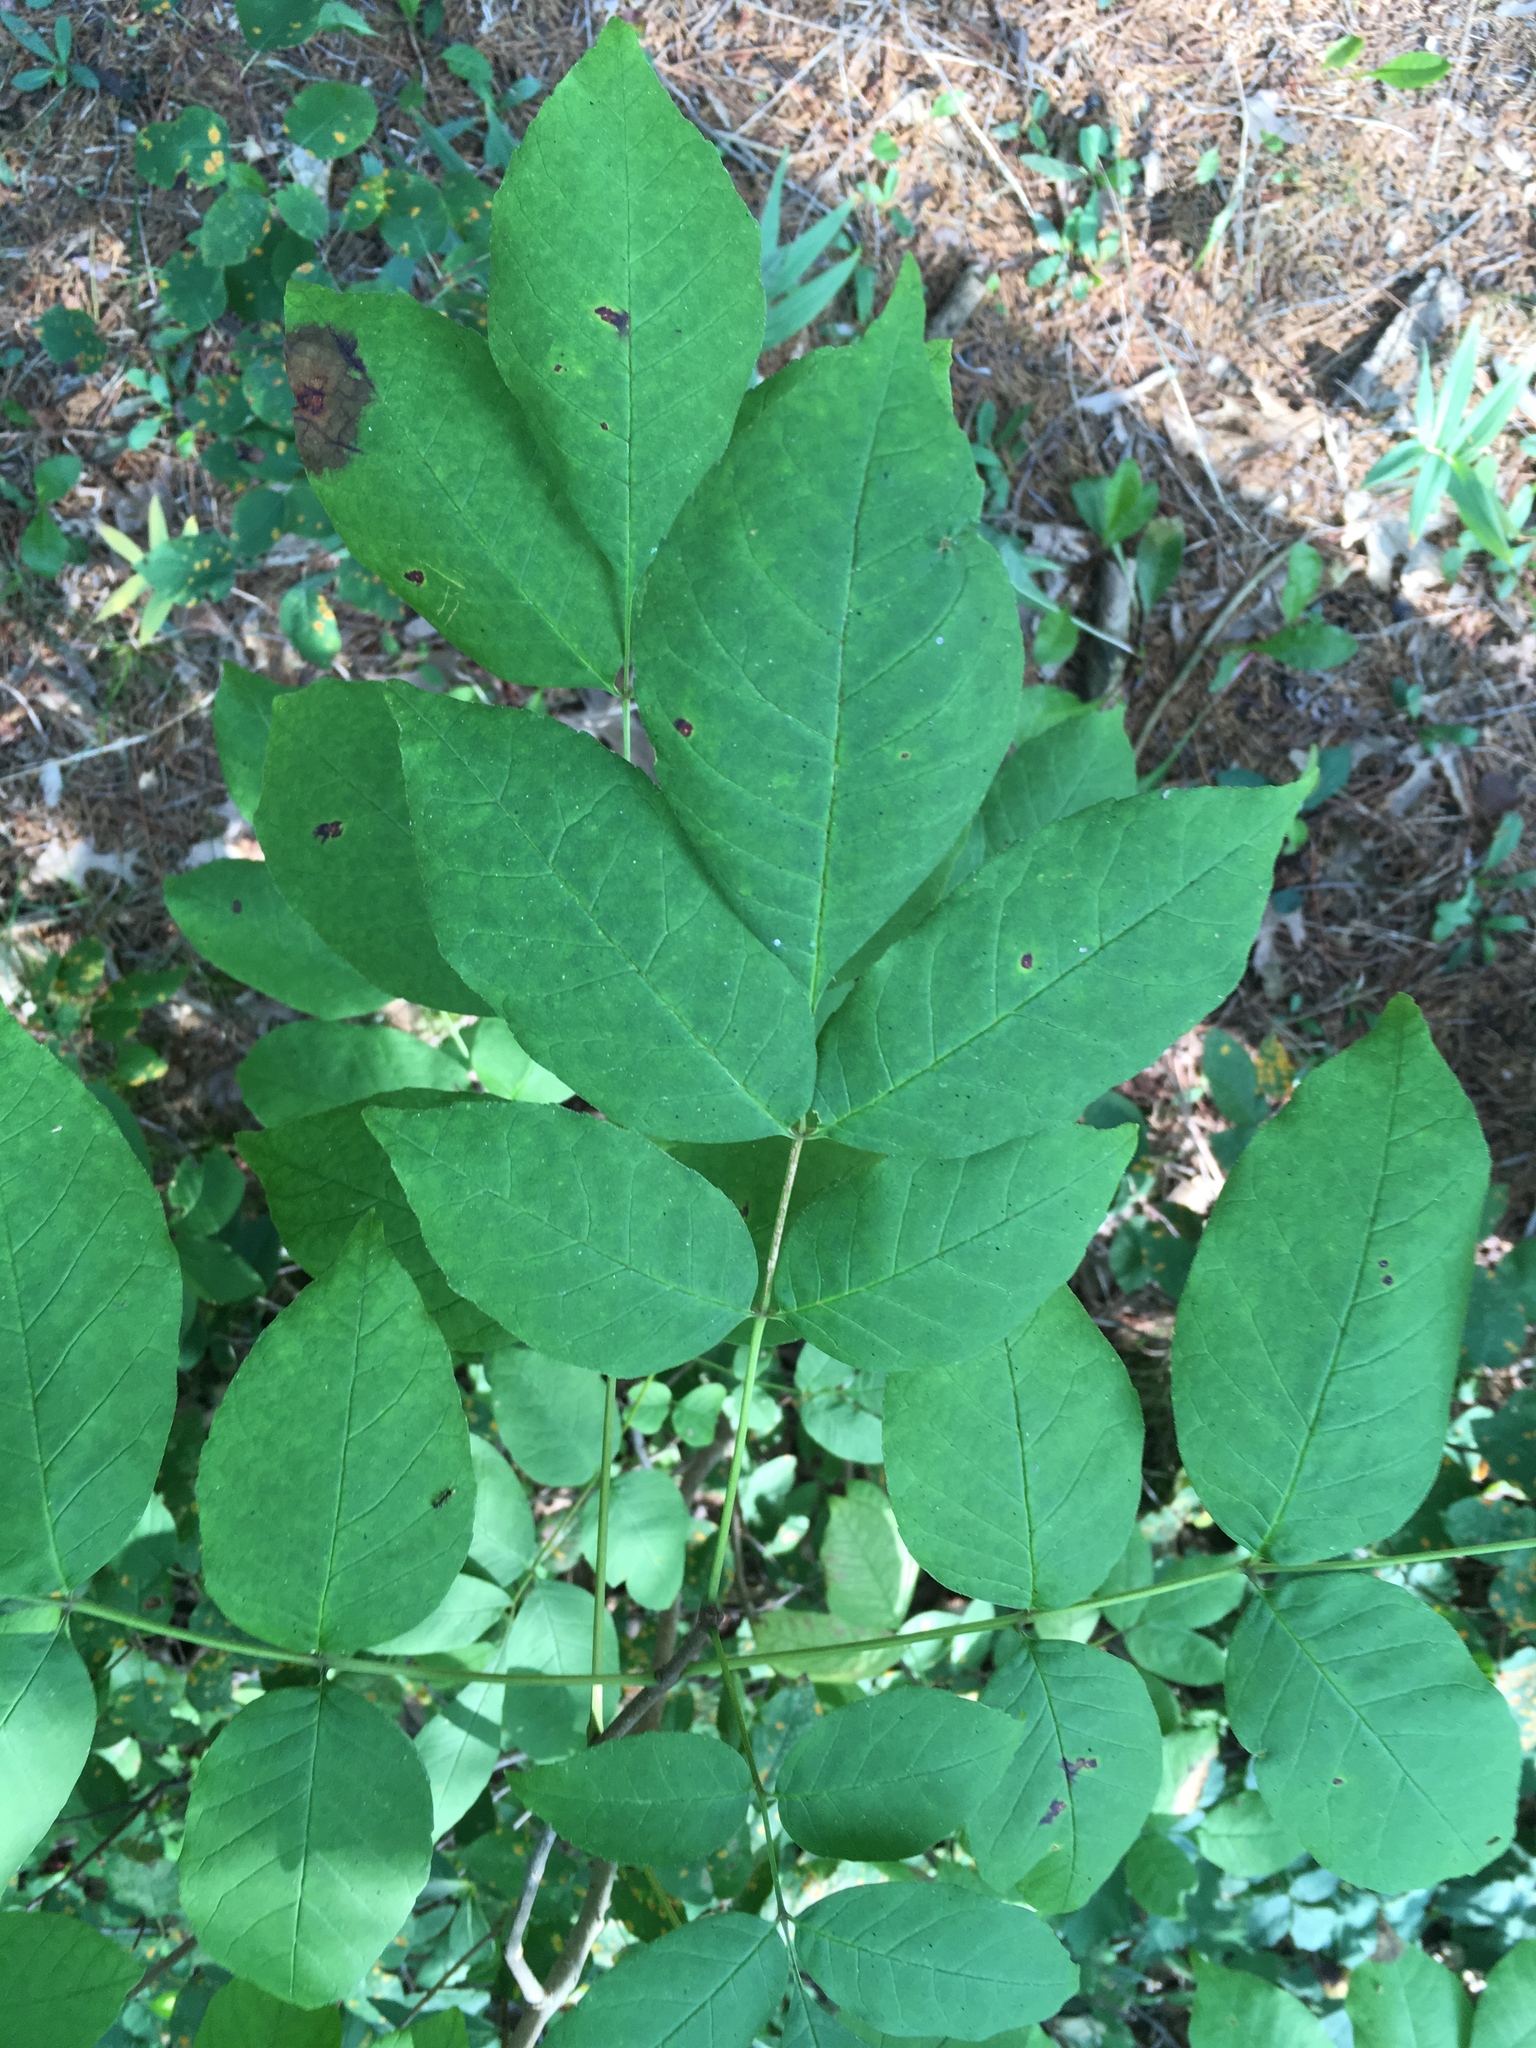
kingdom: Plantae
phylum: Tracheophyta
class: Magnoliopsida
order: Lamiales
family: Oleaceae
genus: Fraxinus
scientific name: Fraxinus americana
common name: White ash
